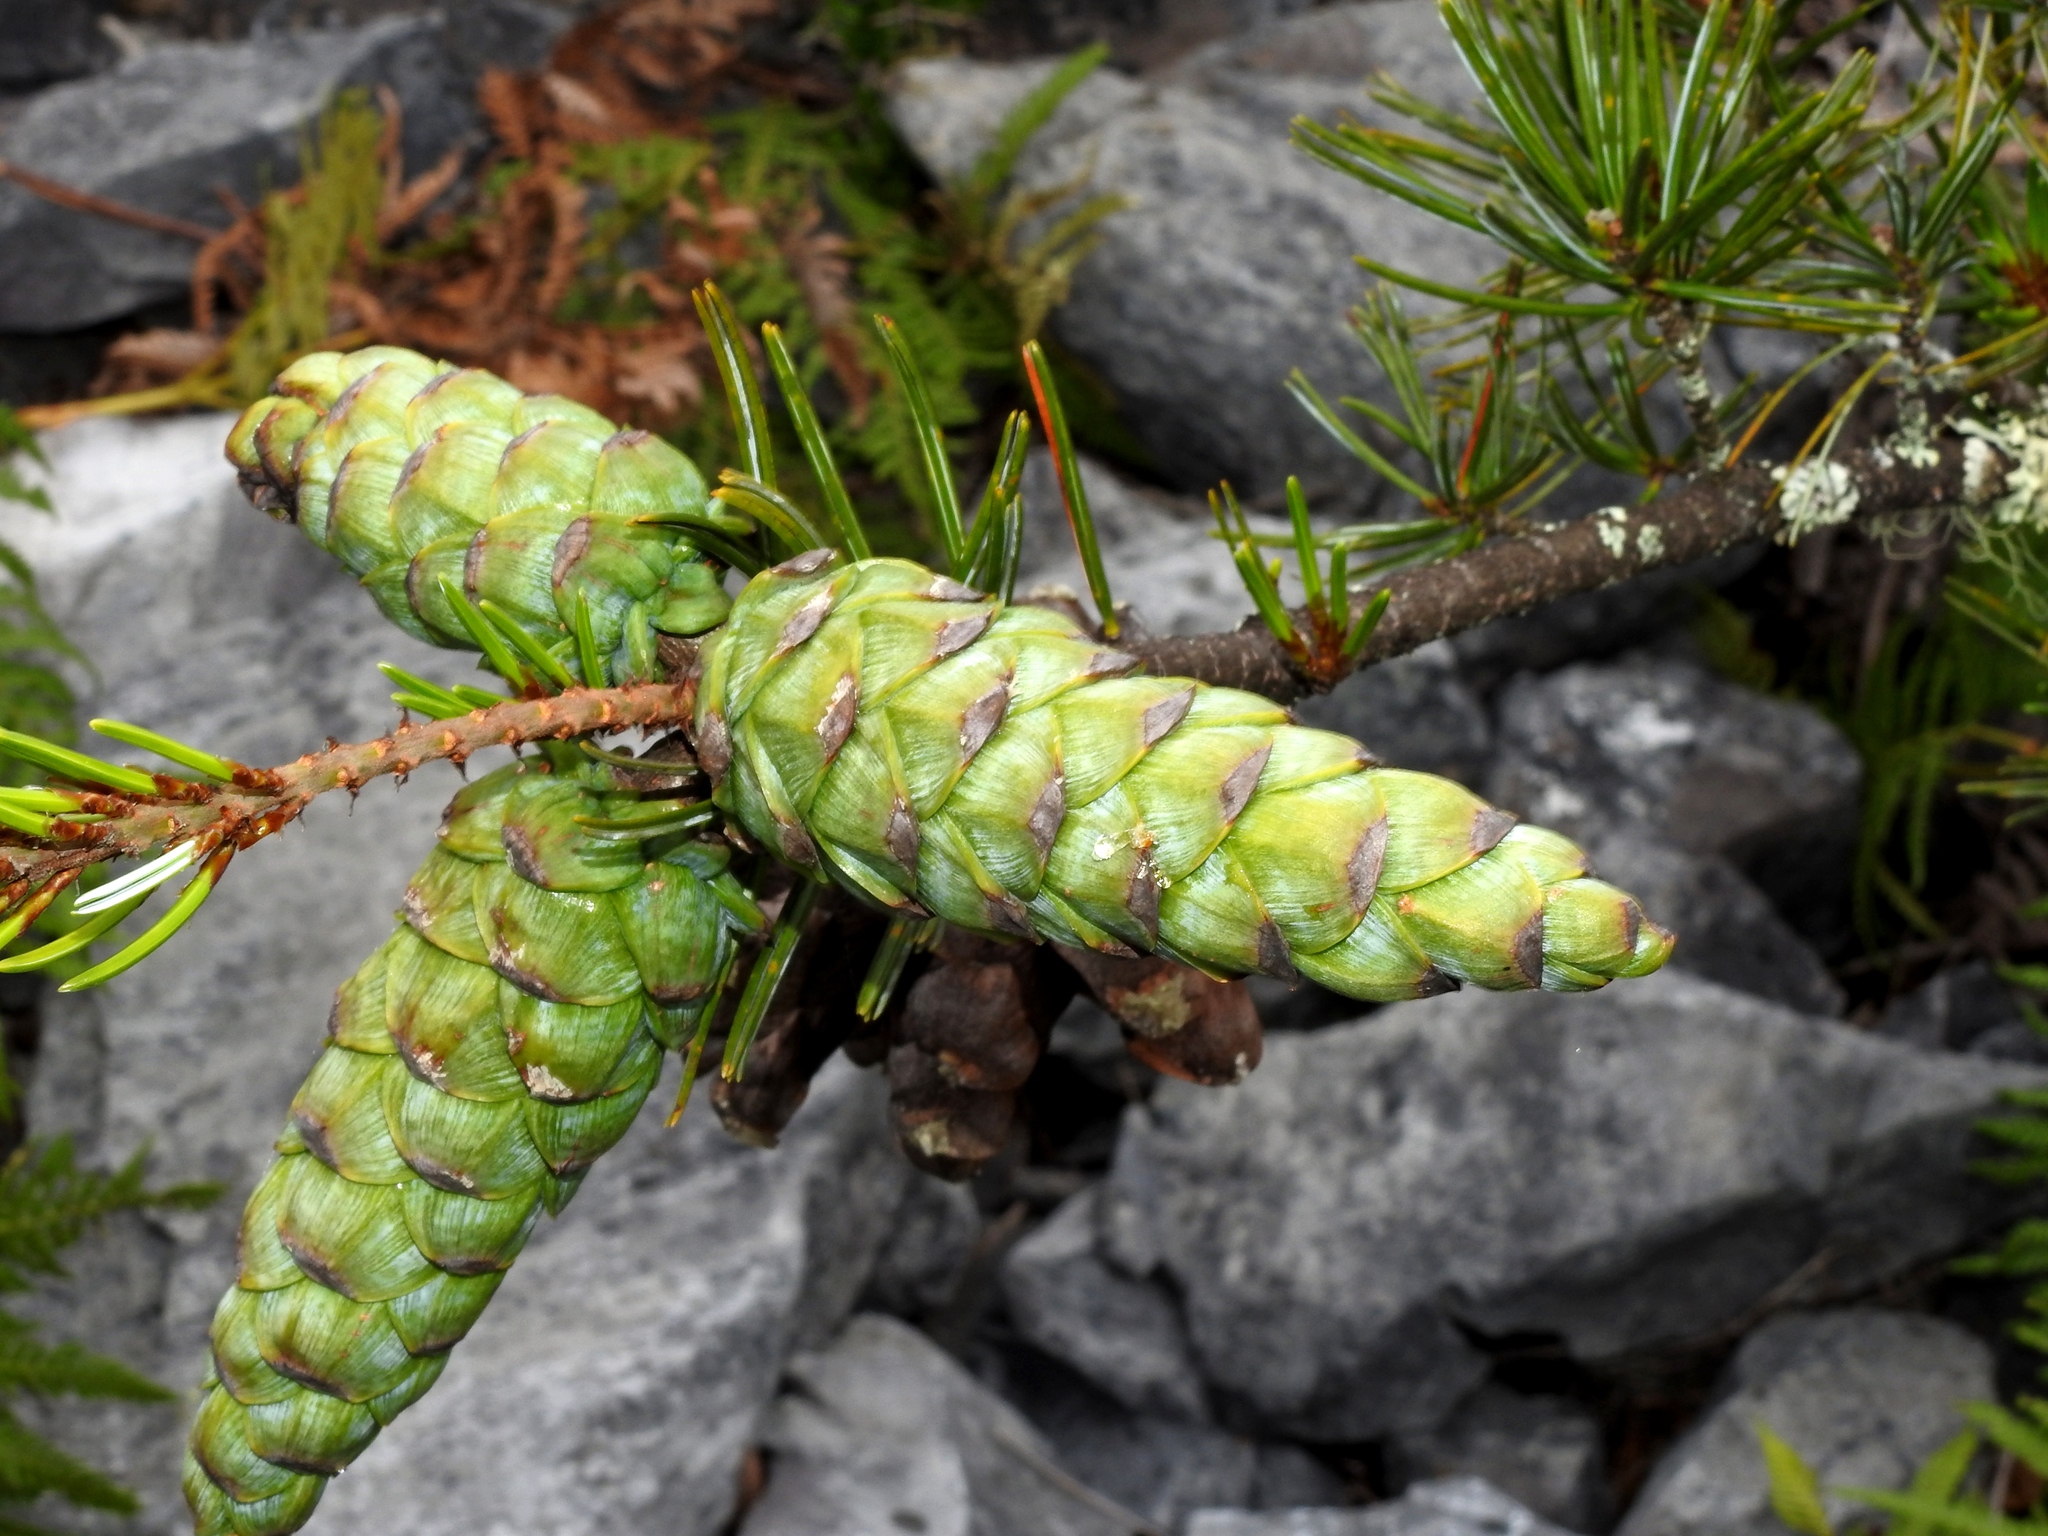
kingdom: Plantae
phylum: Tracheophyta
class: Pinopsida
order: Pinales
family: Pinaceae
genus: Pinus
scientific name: Pinus morrisonicola
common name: Taiwan white pine
